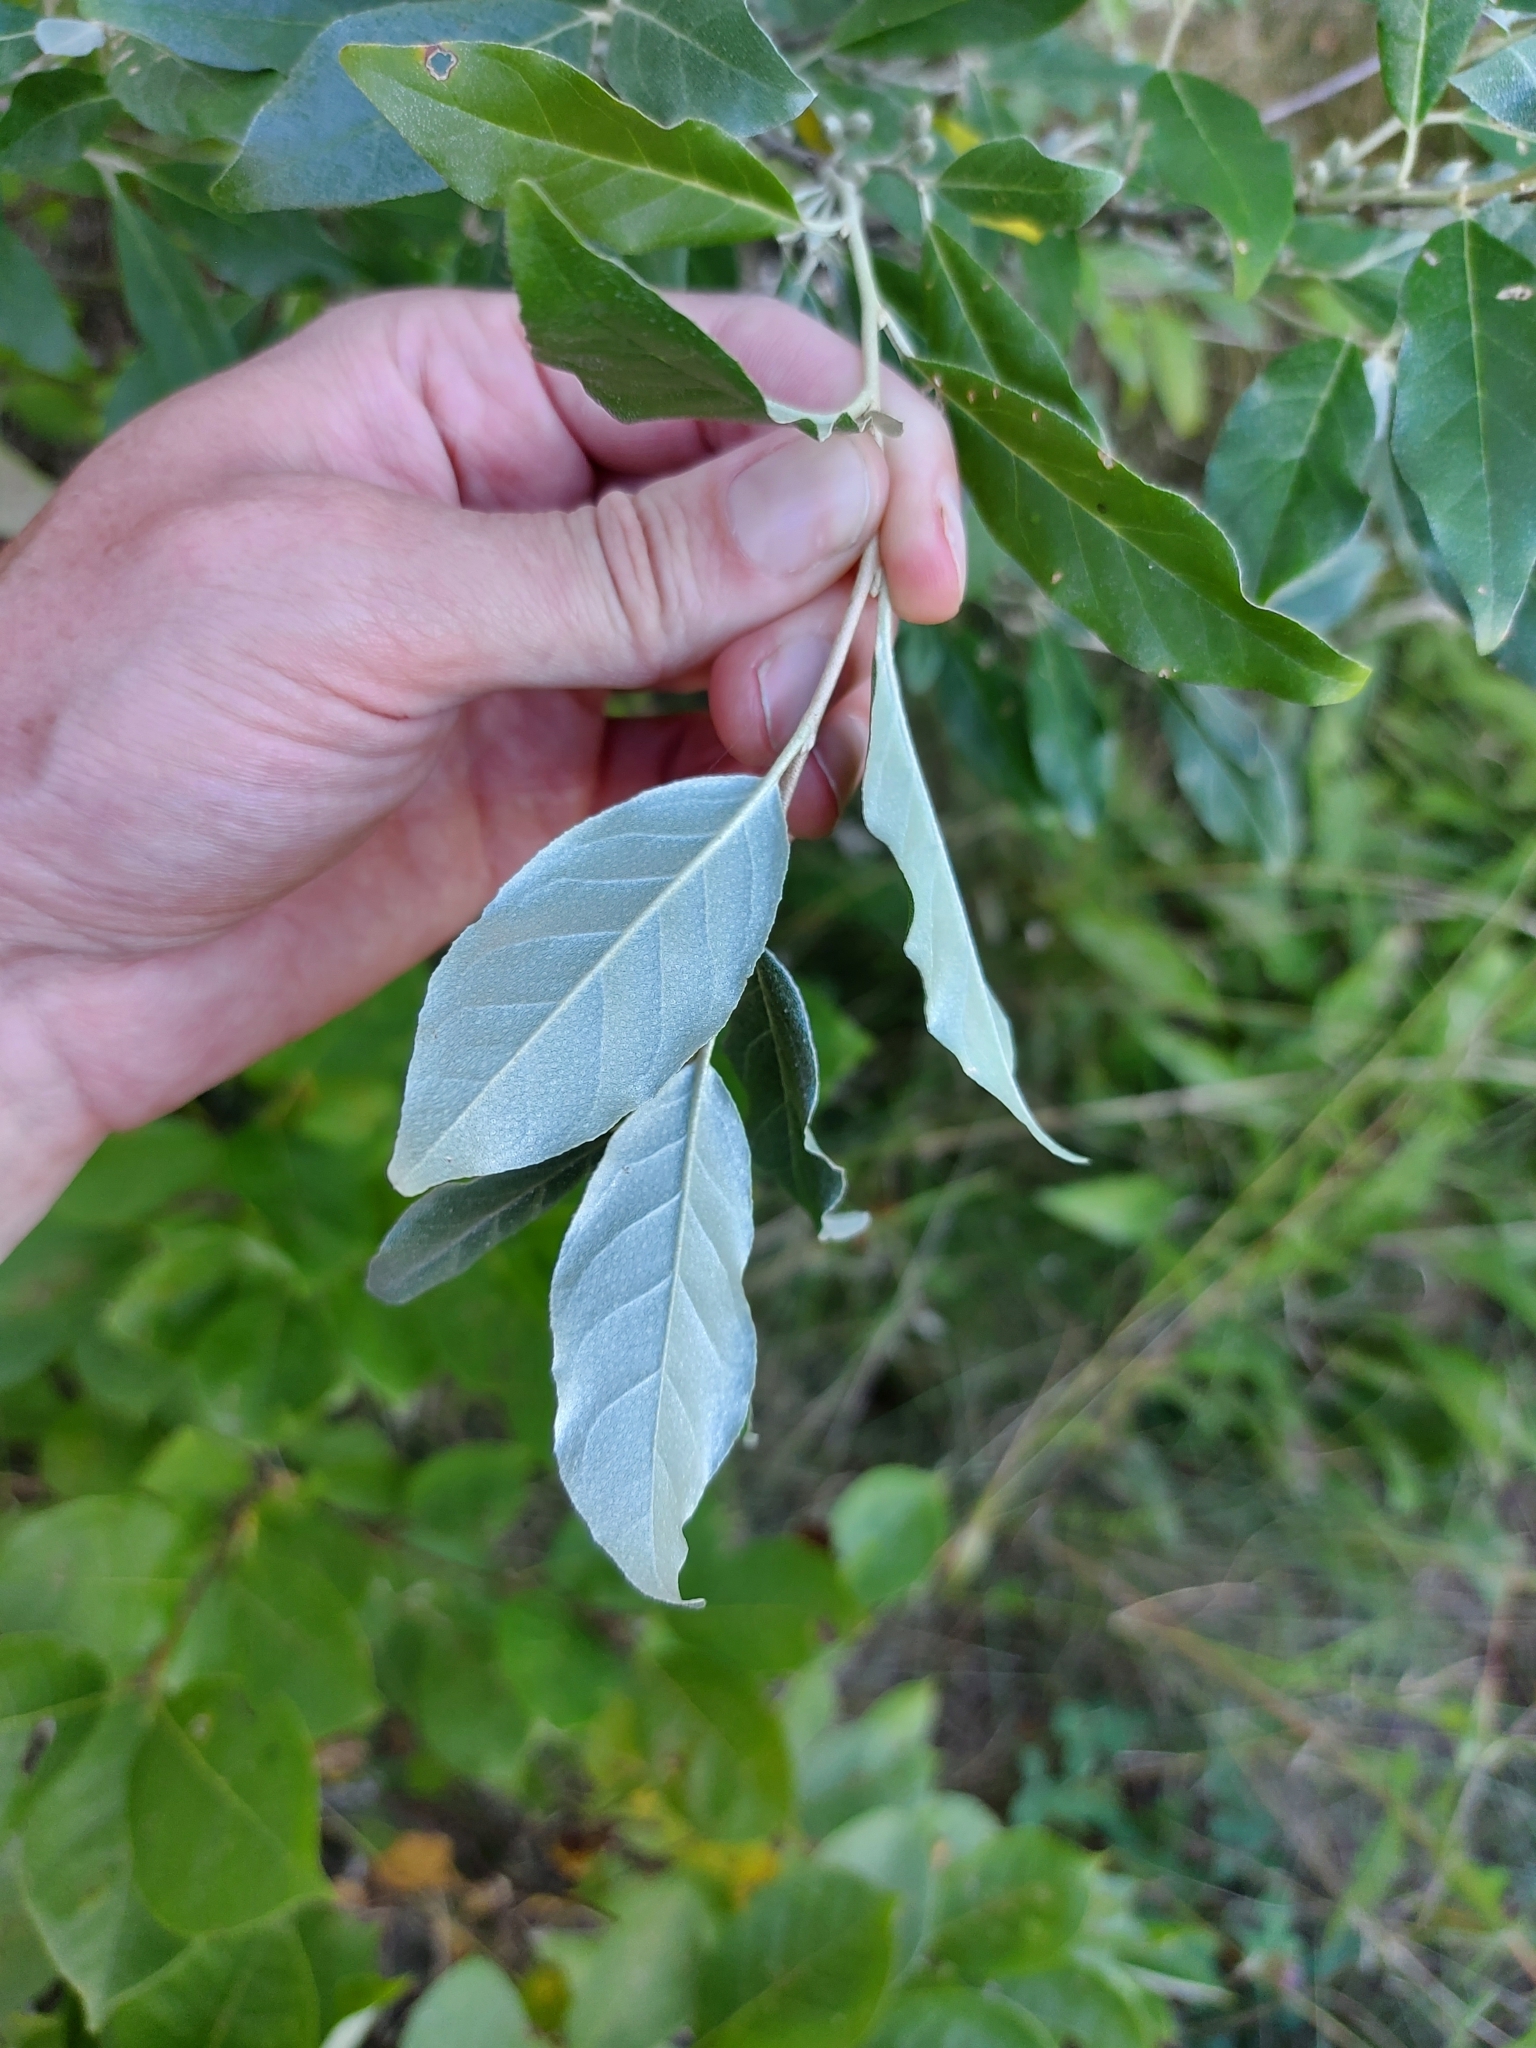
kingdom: Plantae
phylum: Tracheophyta
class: Magnoliopsida
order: Rosales
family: Elaeagnaceae
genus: Elaeagnus
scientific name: Elaeagnus umbellata
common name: Autumn olive
